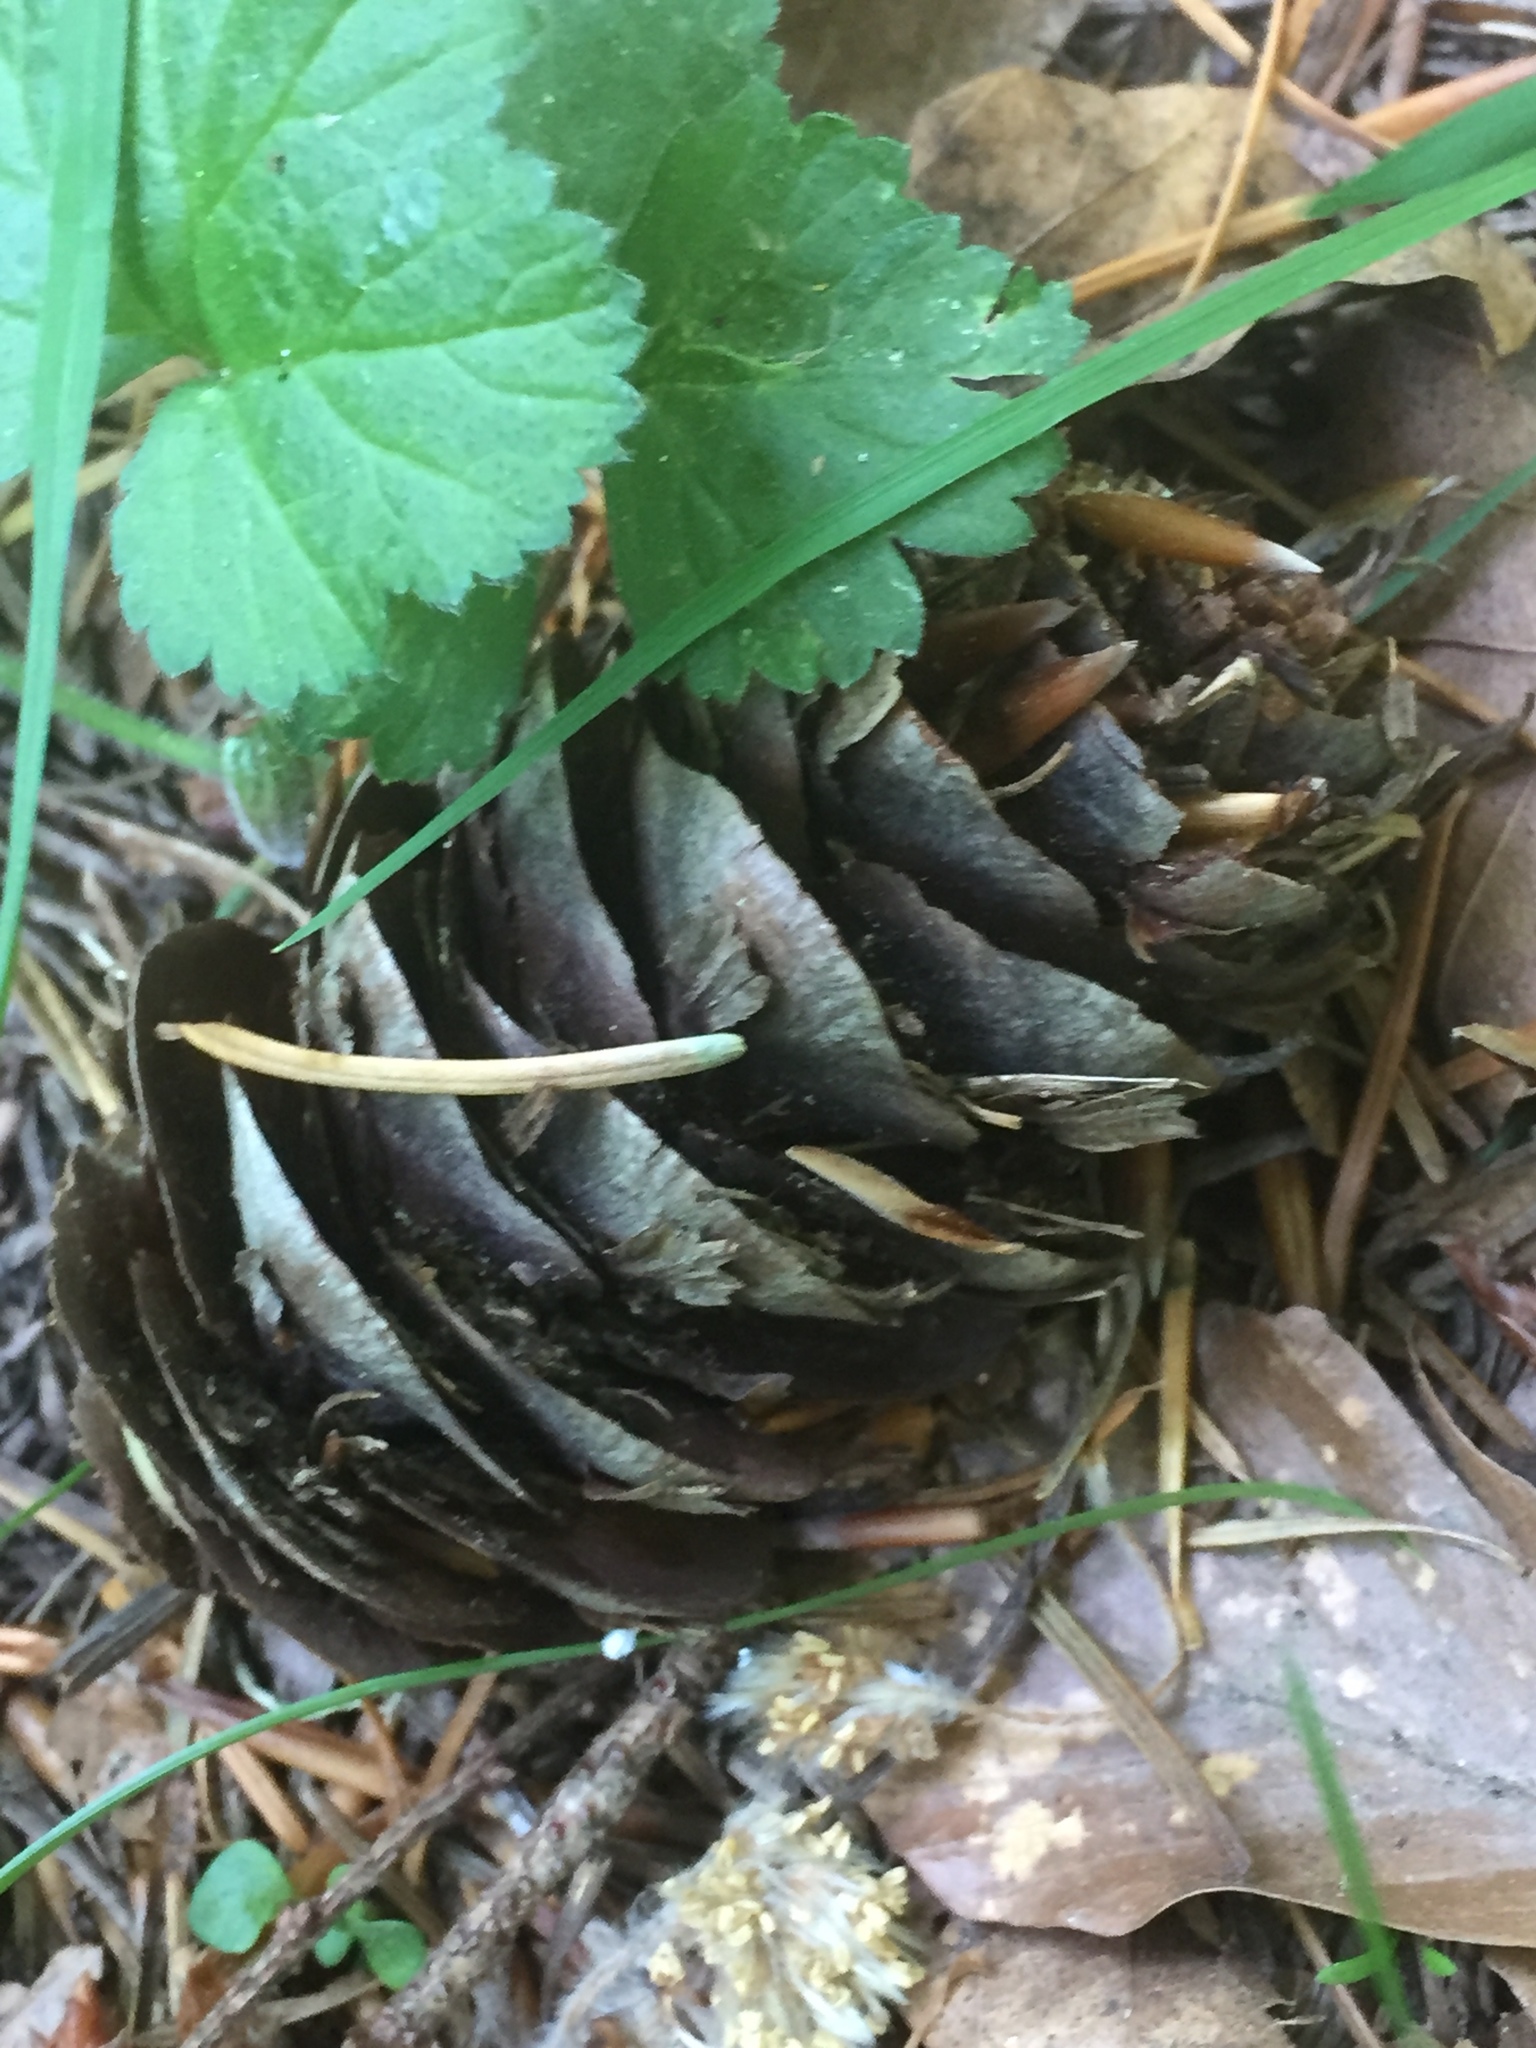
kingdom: Plantae
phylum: Tracheophyta
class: Pinopsida
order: Pinales
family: Pinaceae
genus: Pseudotsuga
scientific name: Pseudotsuga menziesii
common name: Douglas fir
